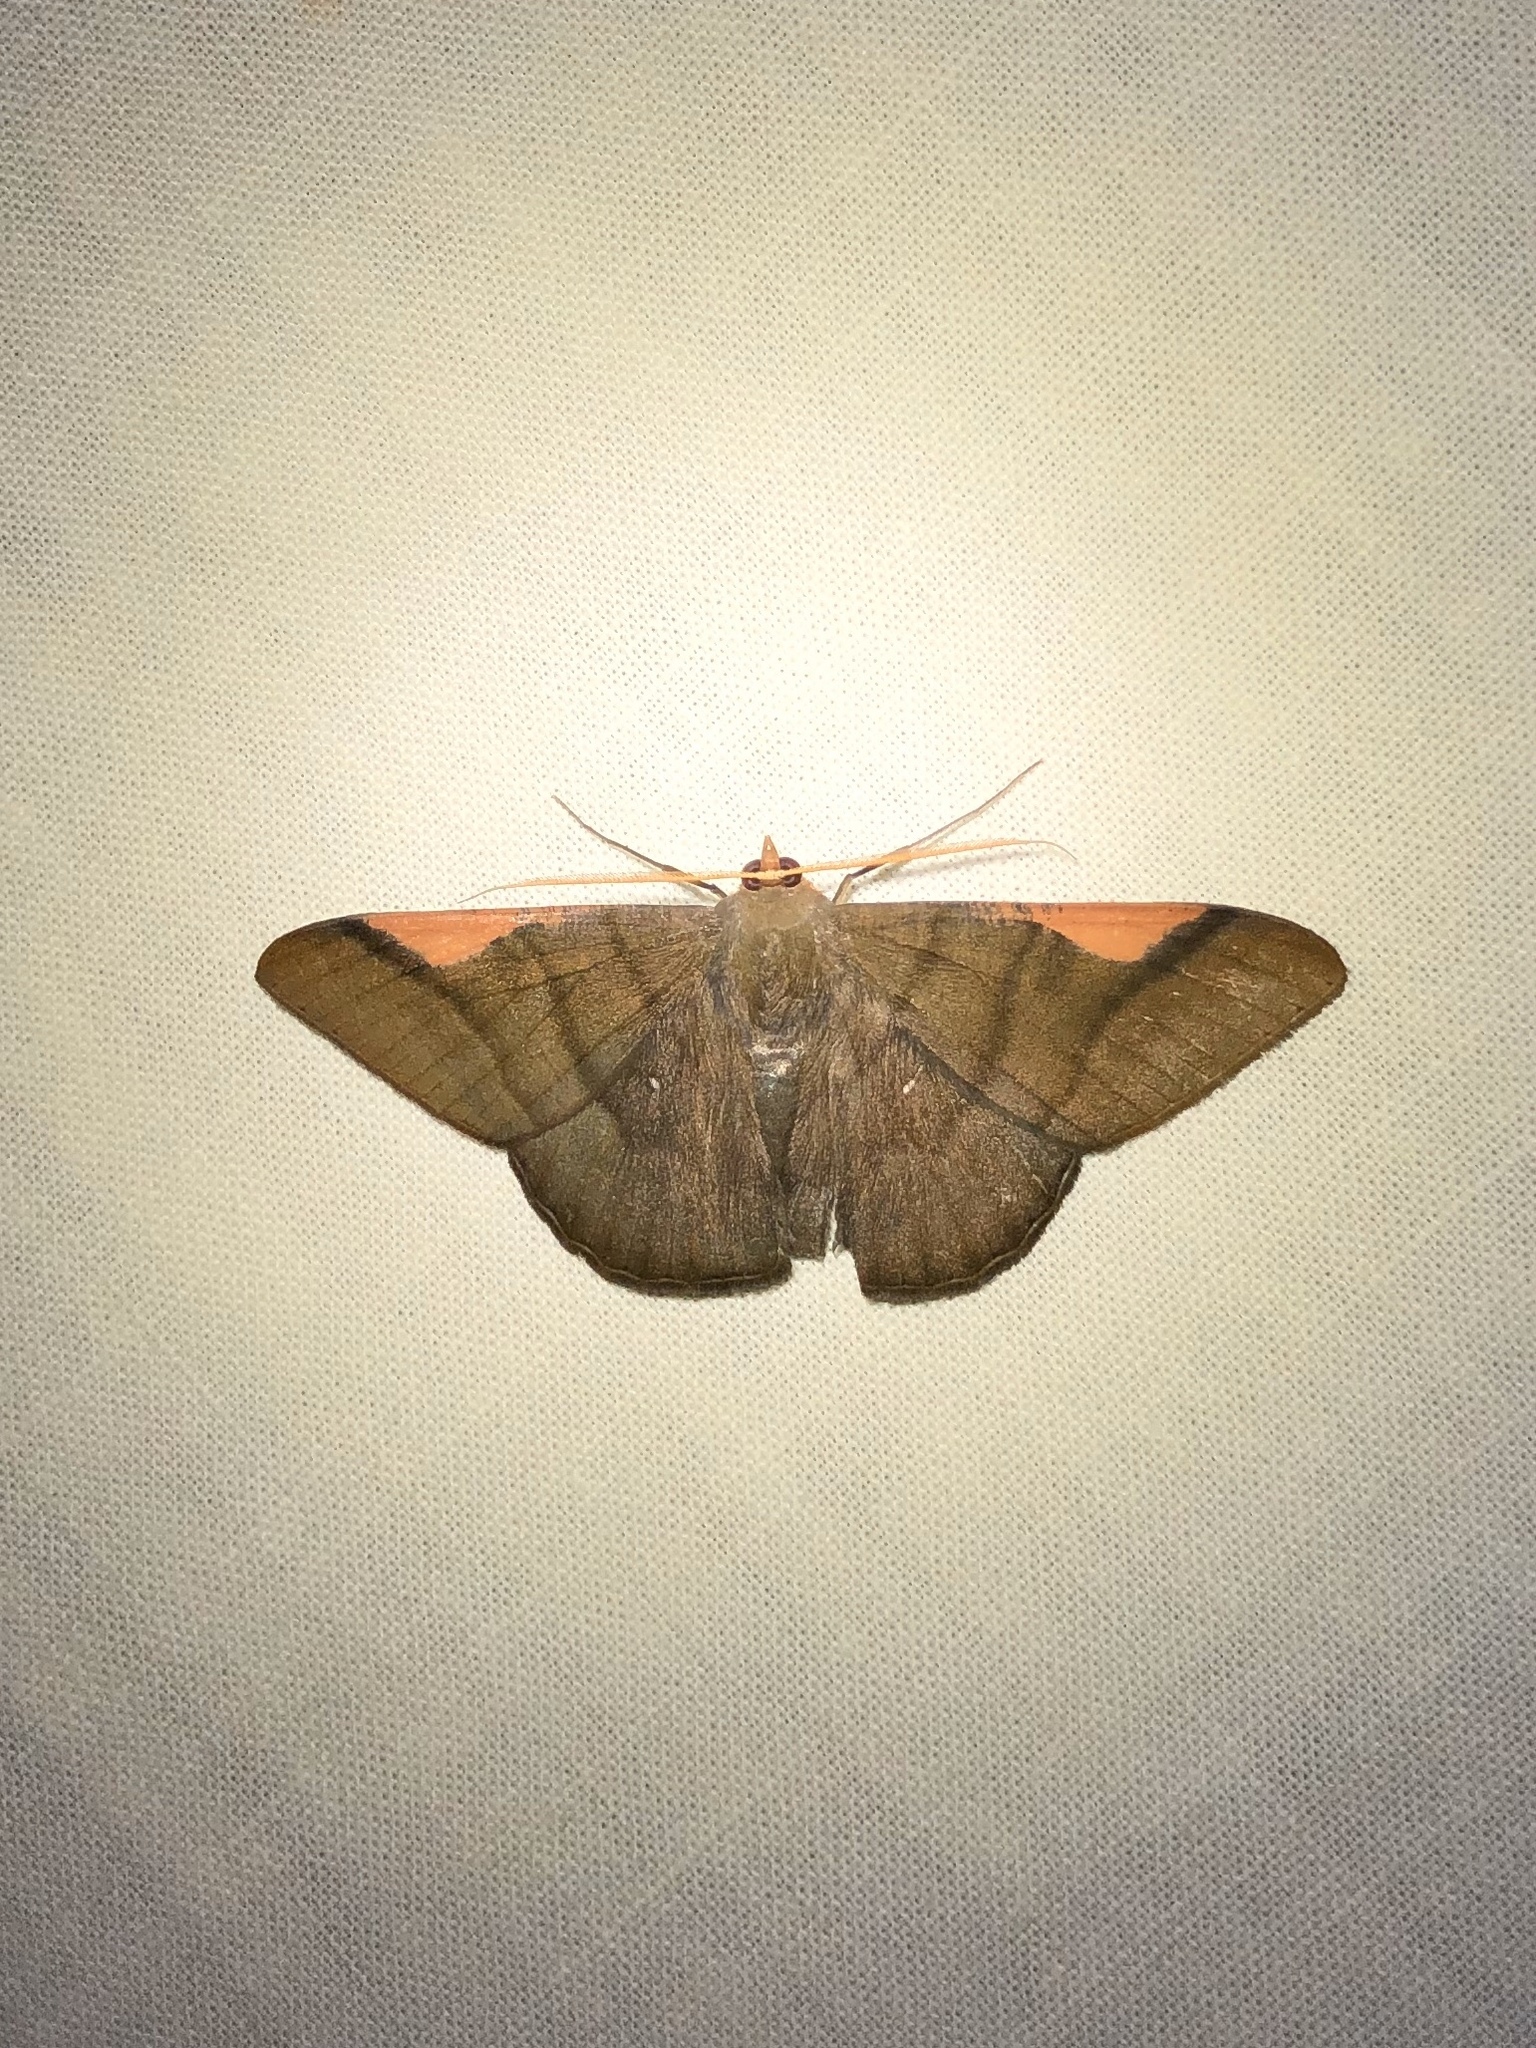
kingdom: Animalia
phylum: Arthropoda
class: Insecta
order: Lepidoptera
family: Geometridae
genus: Sphacelodes
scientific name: Sphacelodes vulneraria
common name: Looper moth
